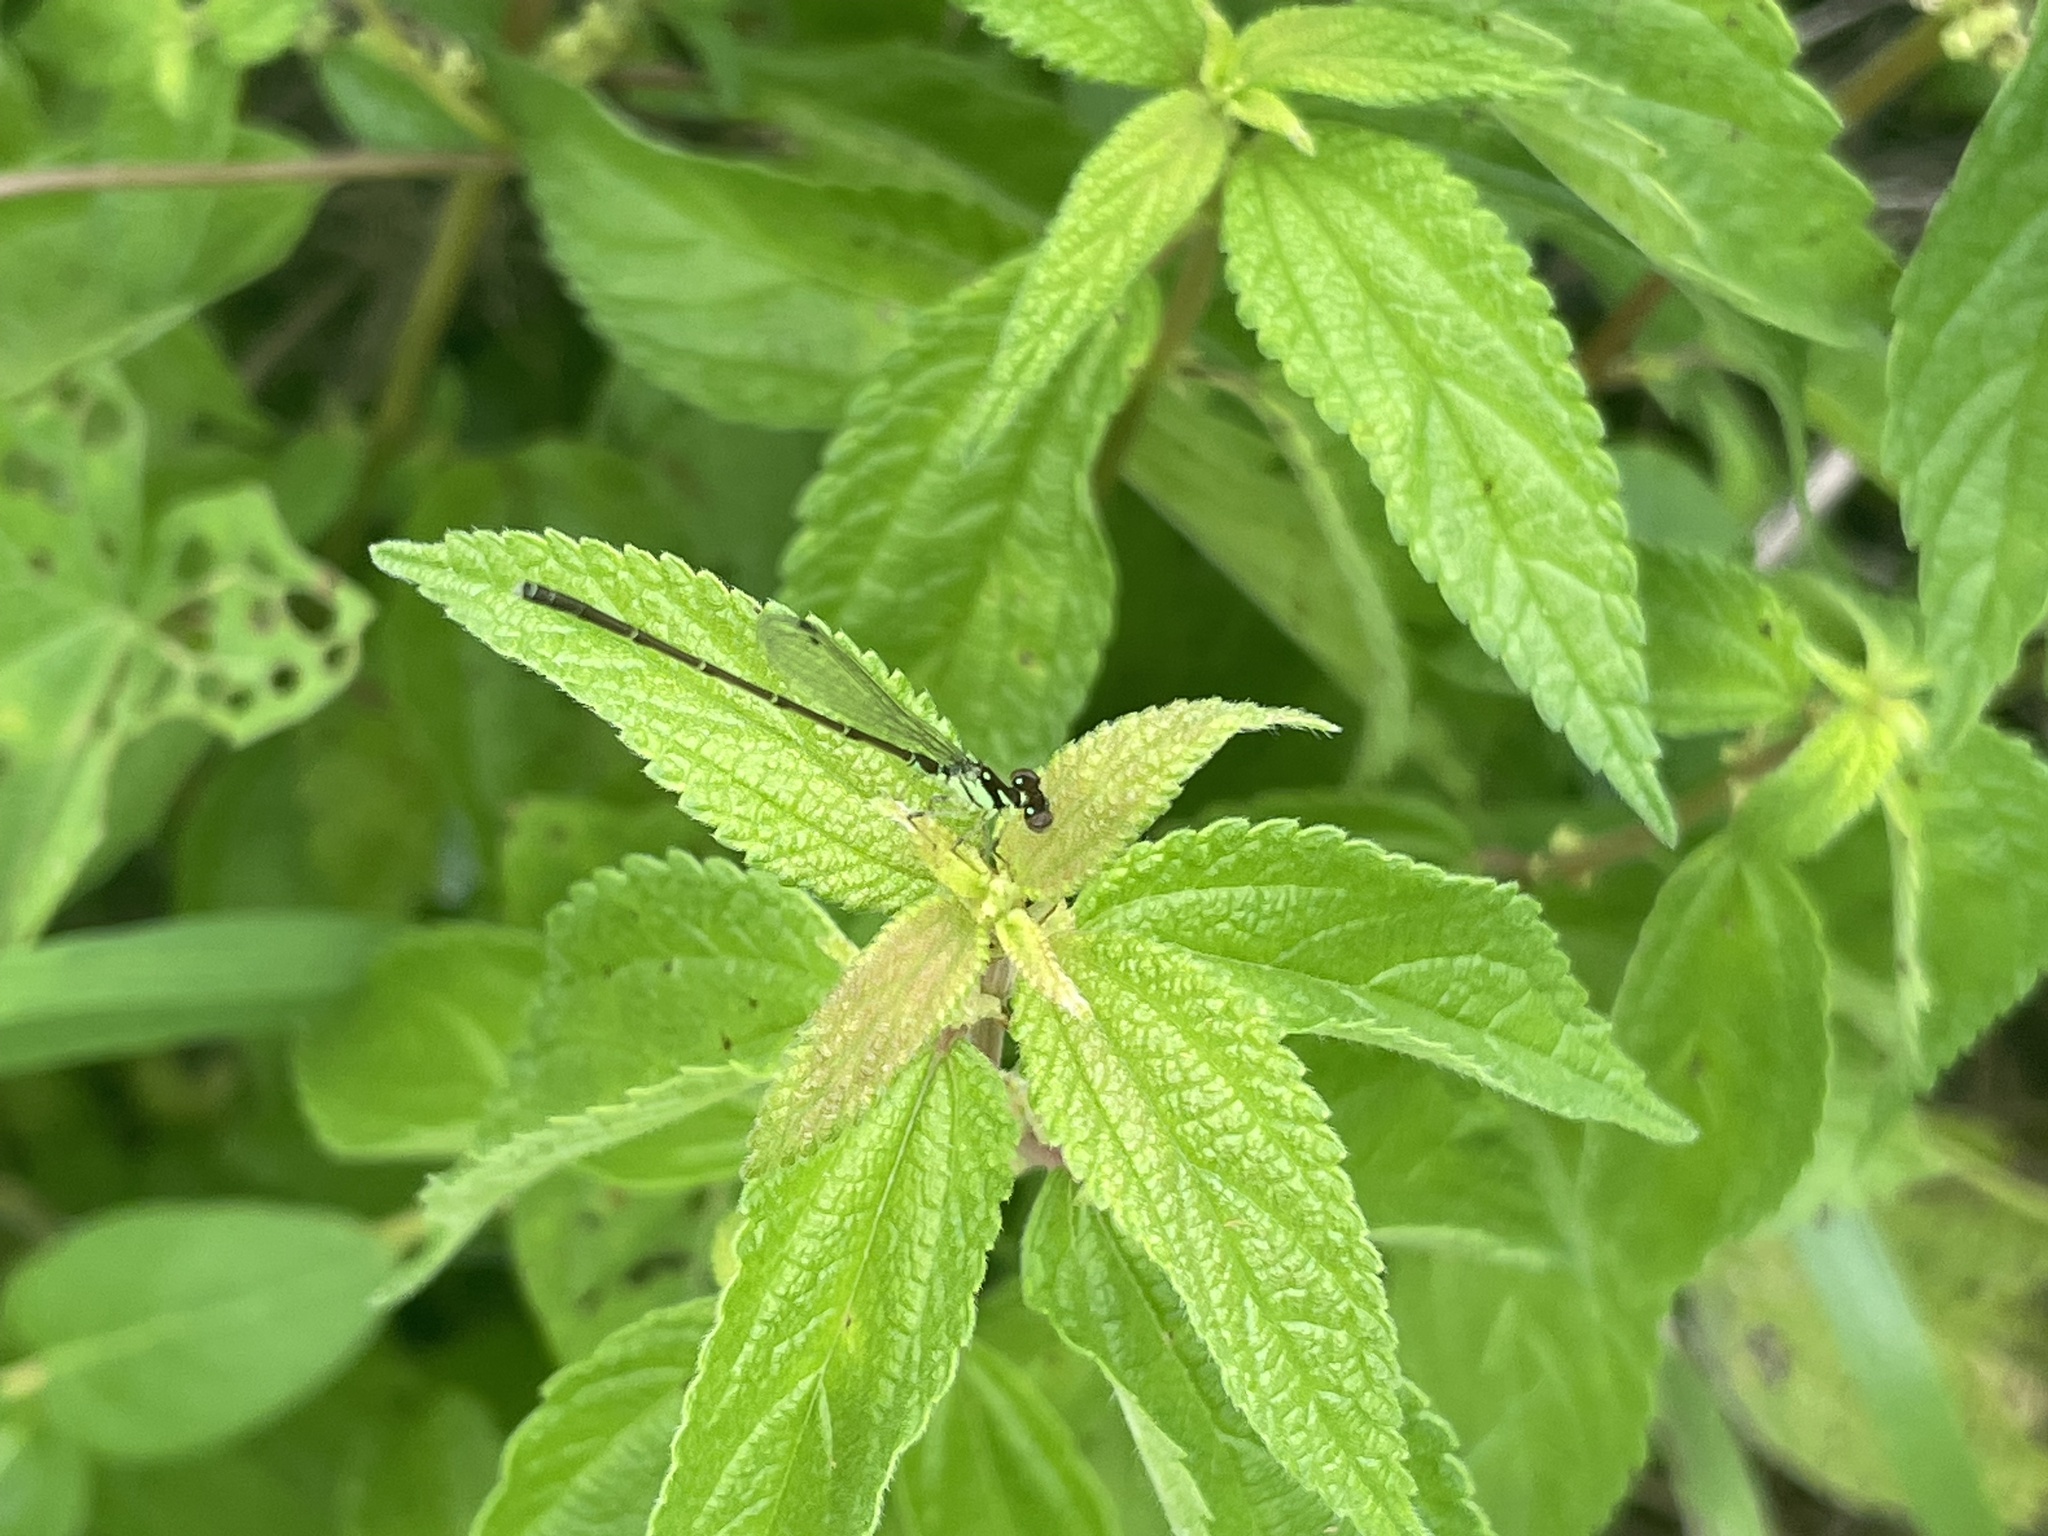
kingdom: Animalia
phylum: Arthropoda
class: Insecta
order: Odonata
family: Coenagrionidae
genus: Ischnura
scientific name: Ischnura posita
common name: Fragile forktail
